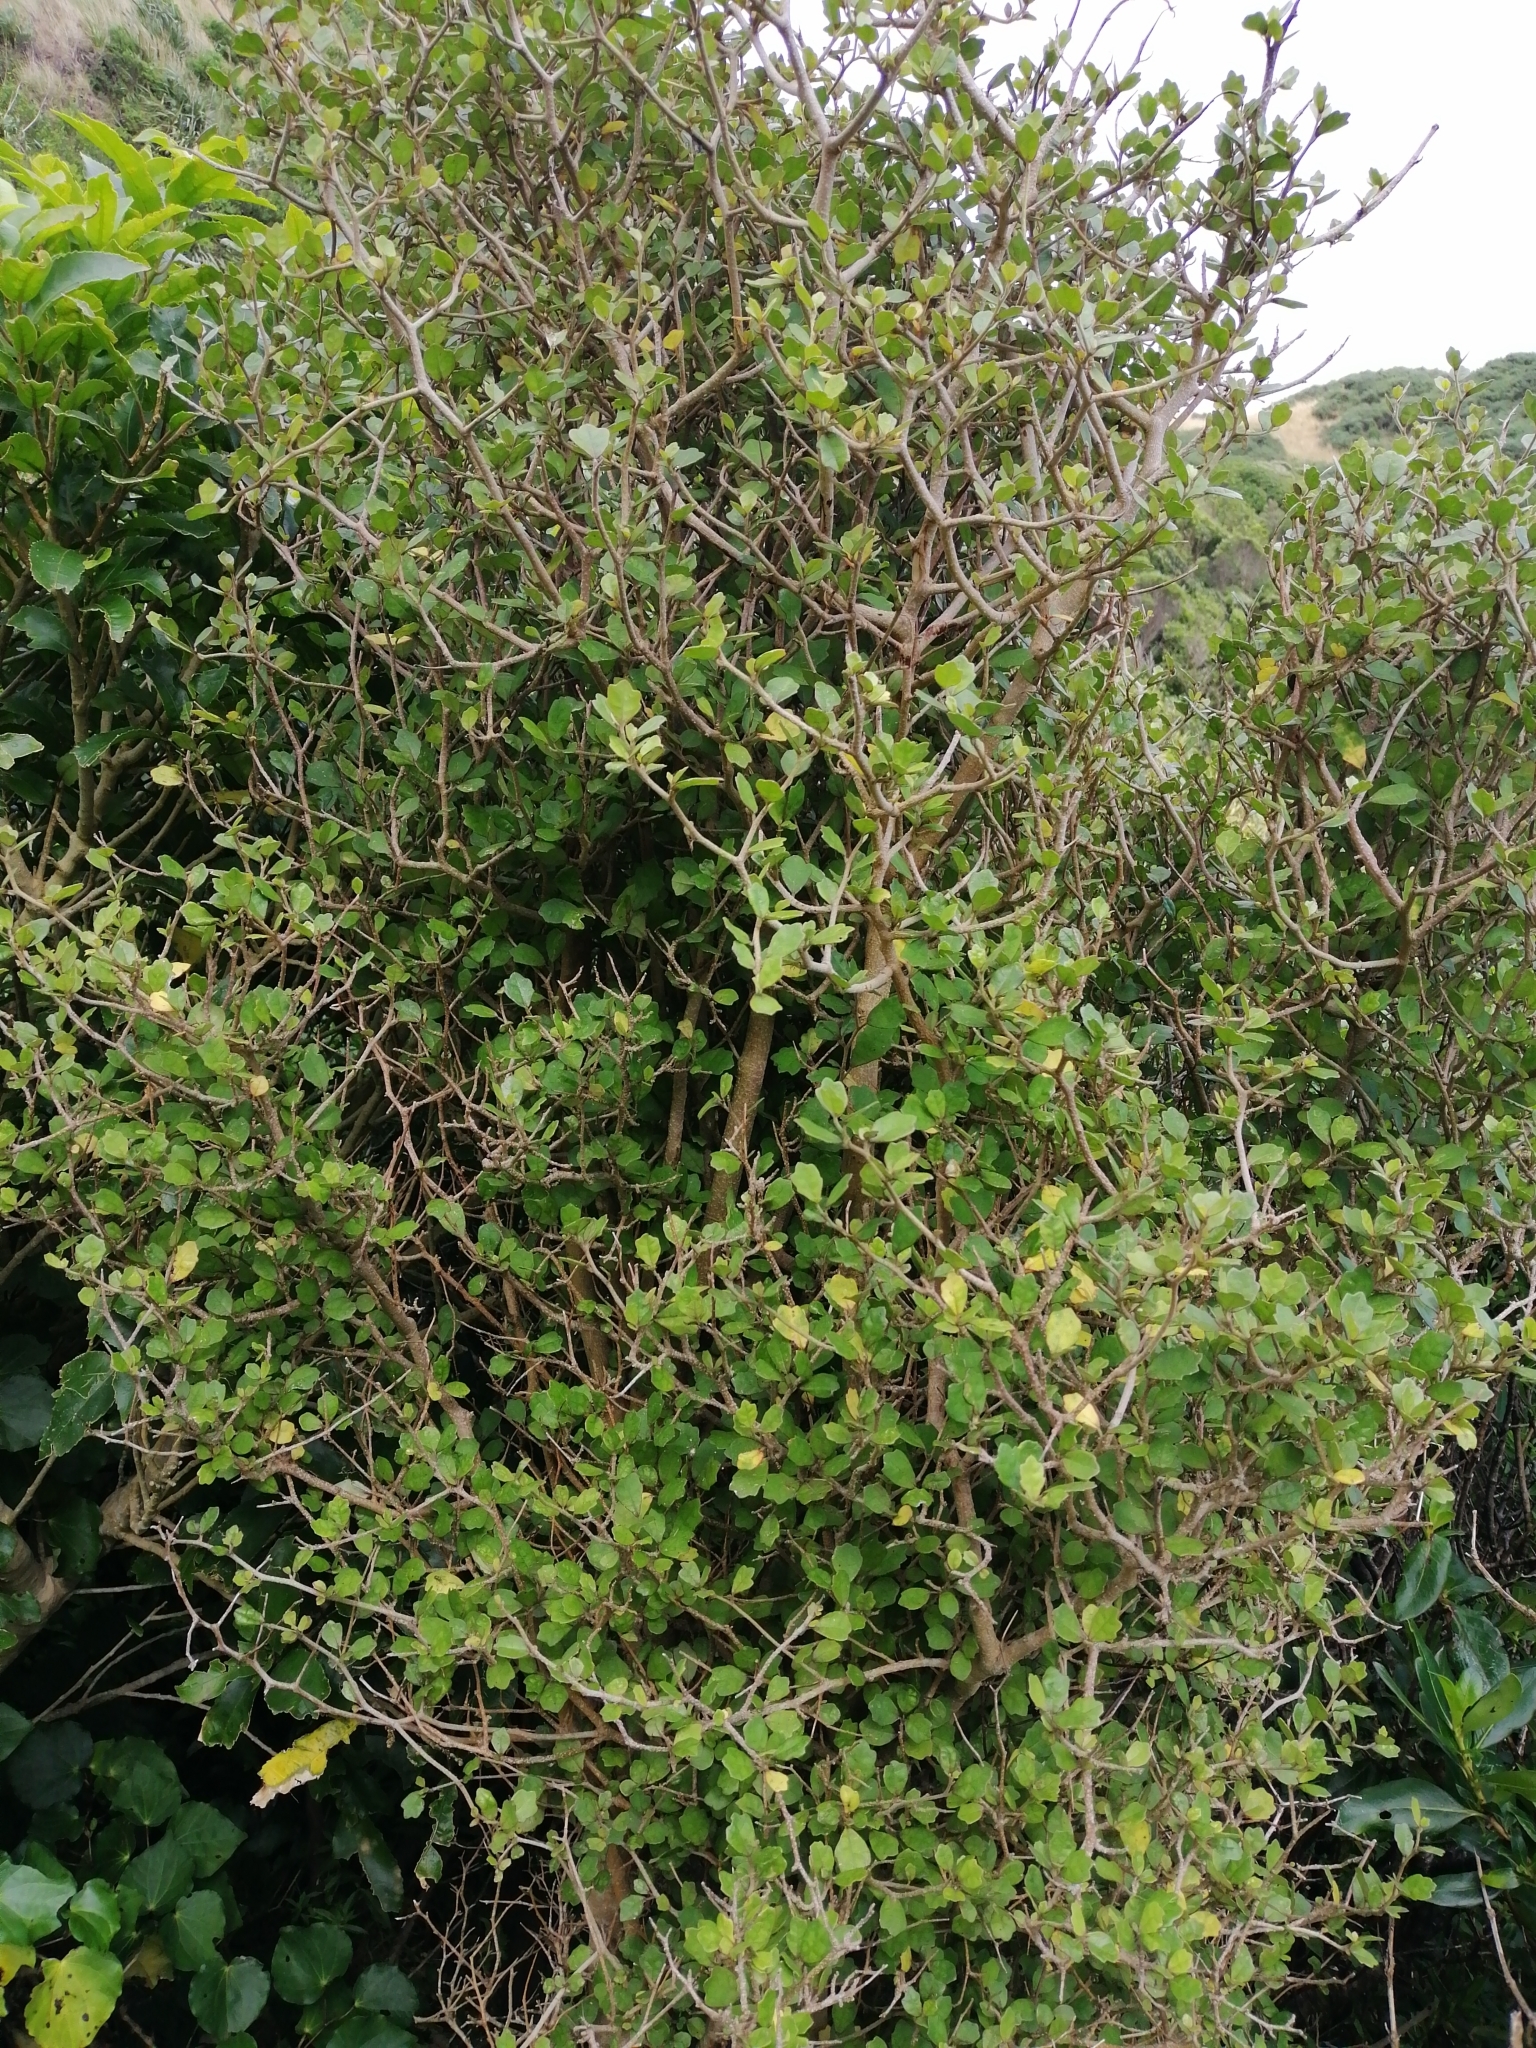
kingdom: Plantae
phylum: Tracheophyta
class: Magnoliopsida
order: Apiales
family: Pennantiaceae
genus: Pennantia
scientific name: Pennantia corymbosa
